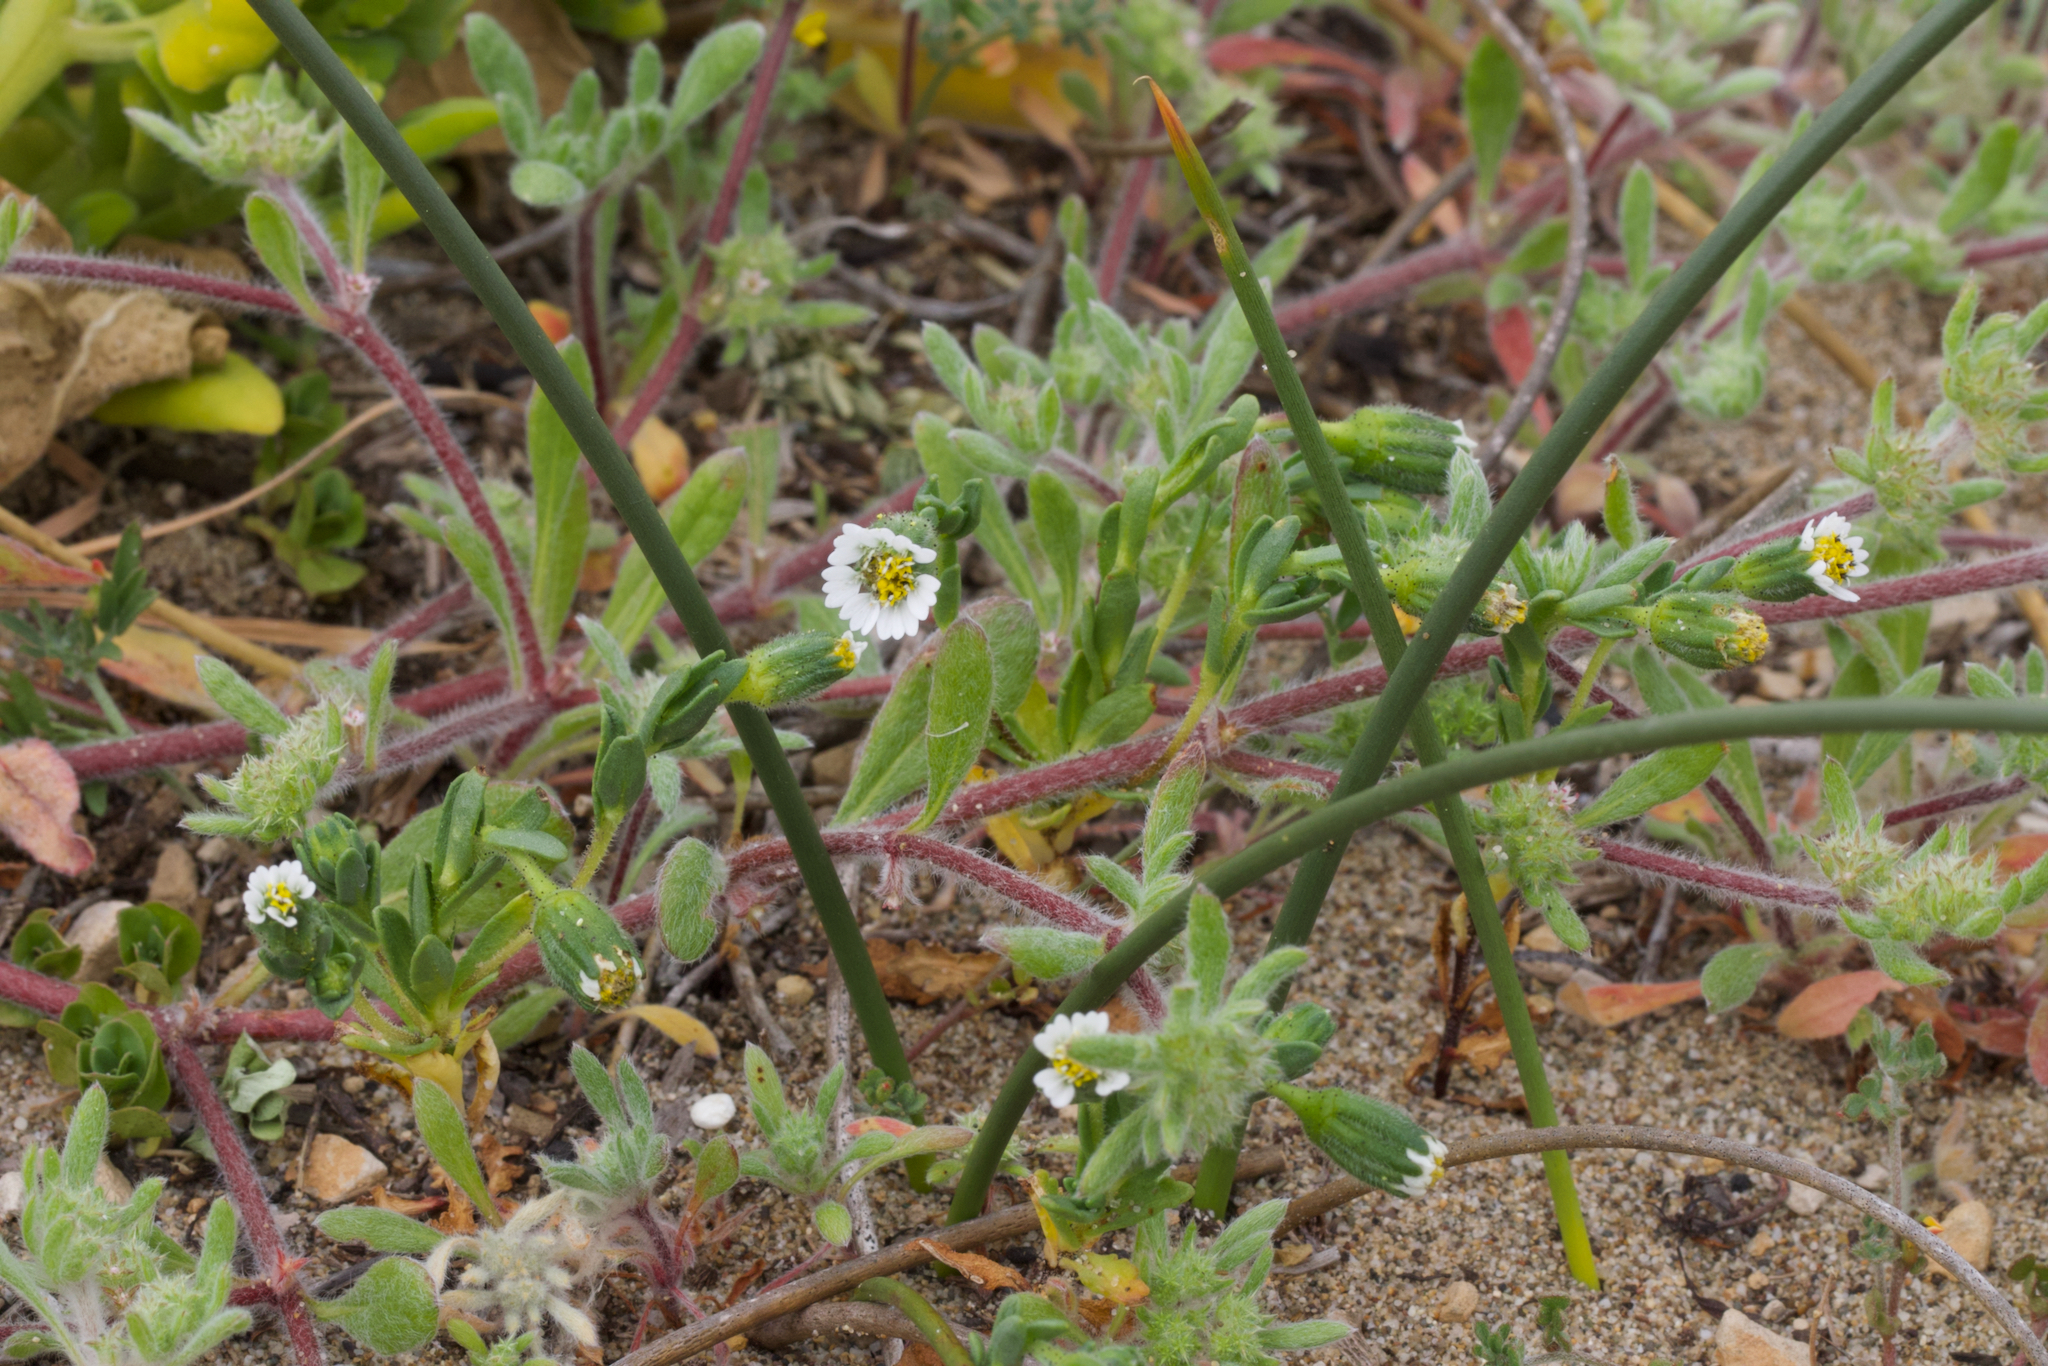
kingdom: Plantae
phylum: Tracheophyta
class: Magnoliopsida
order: Asterales
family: Asteraceae
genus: Layia
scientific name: Layia carnosa
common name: Beach layia
